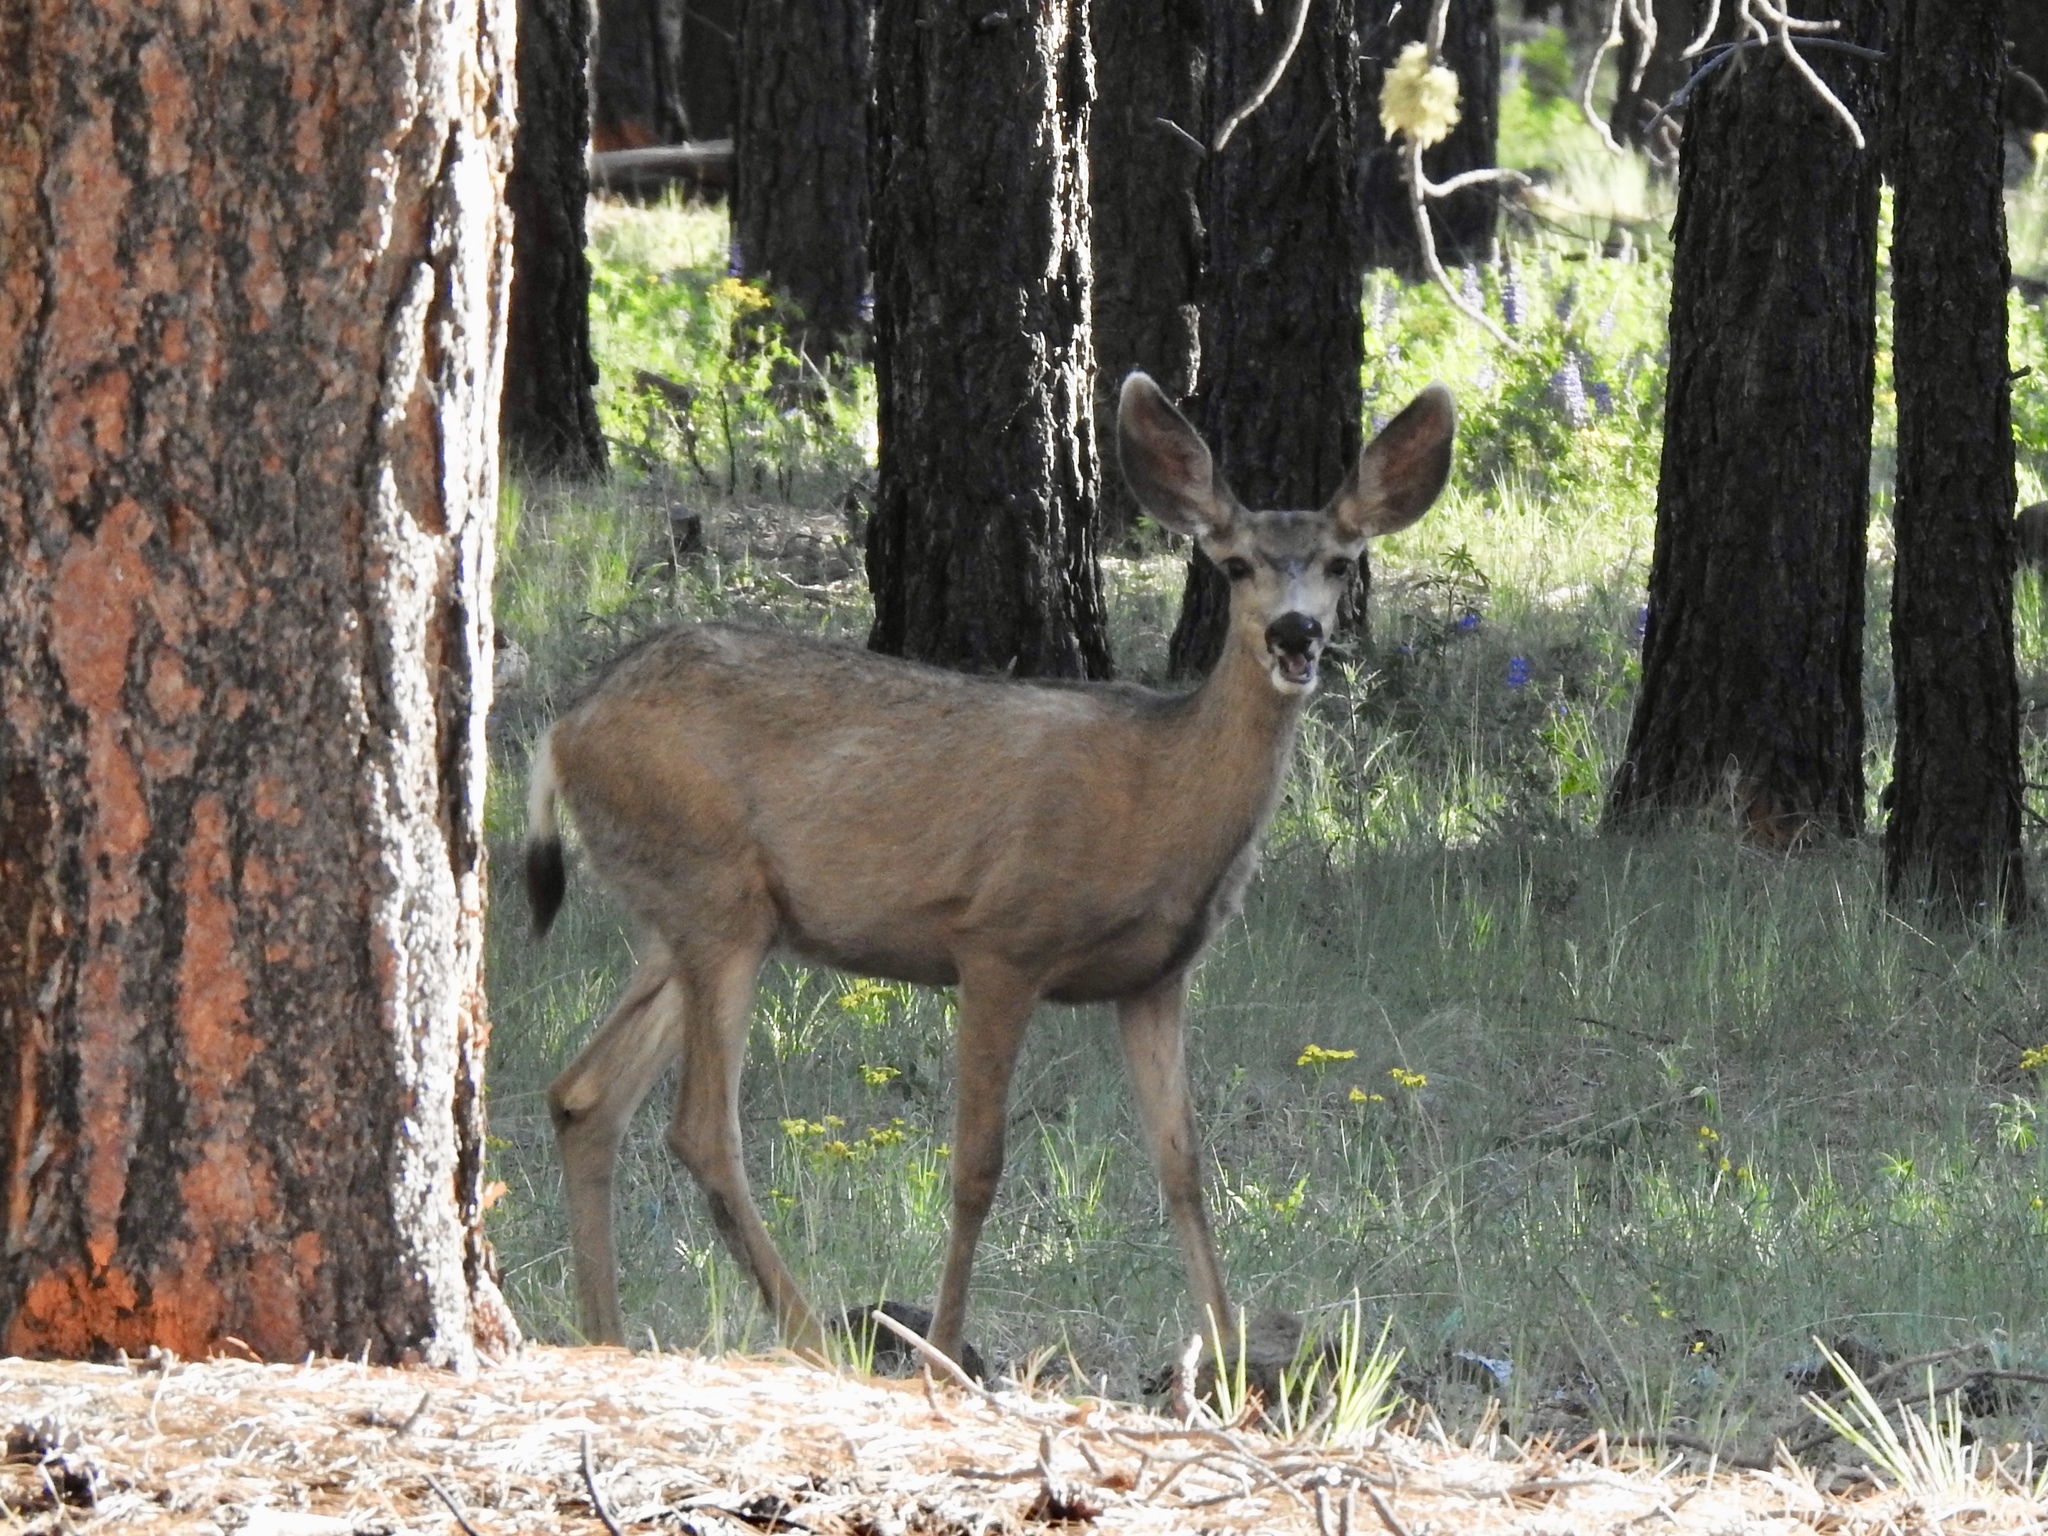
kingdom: Animalia
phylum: Chordata
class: Mammalia
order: Artiodactyla
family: Cervidae
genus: Odocoileus
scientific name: Odocoileus hemionus
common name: Mule deer
